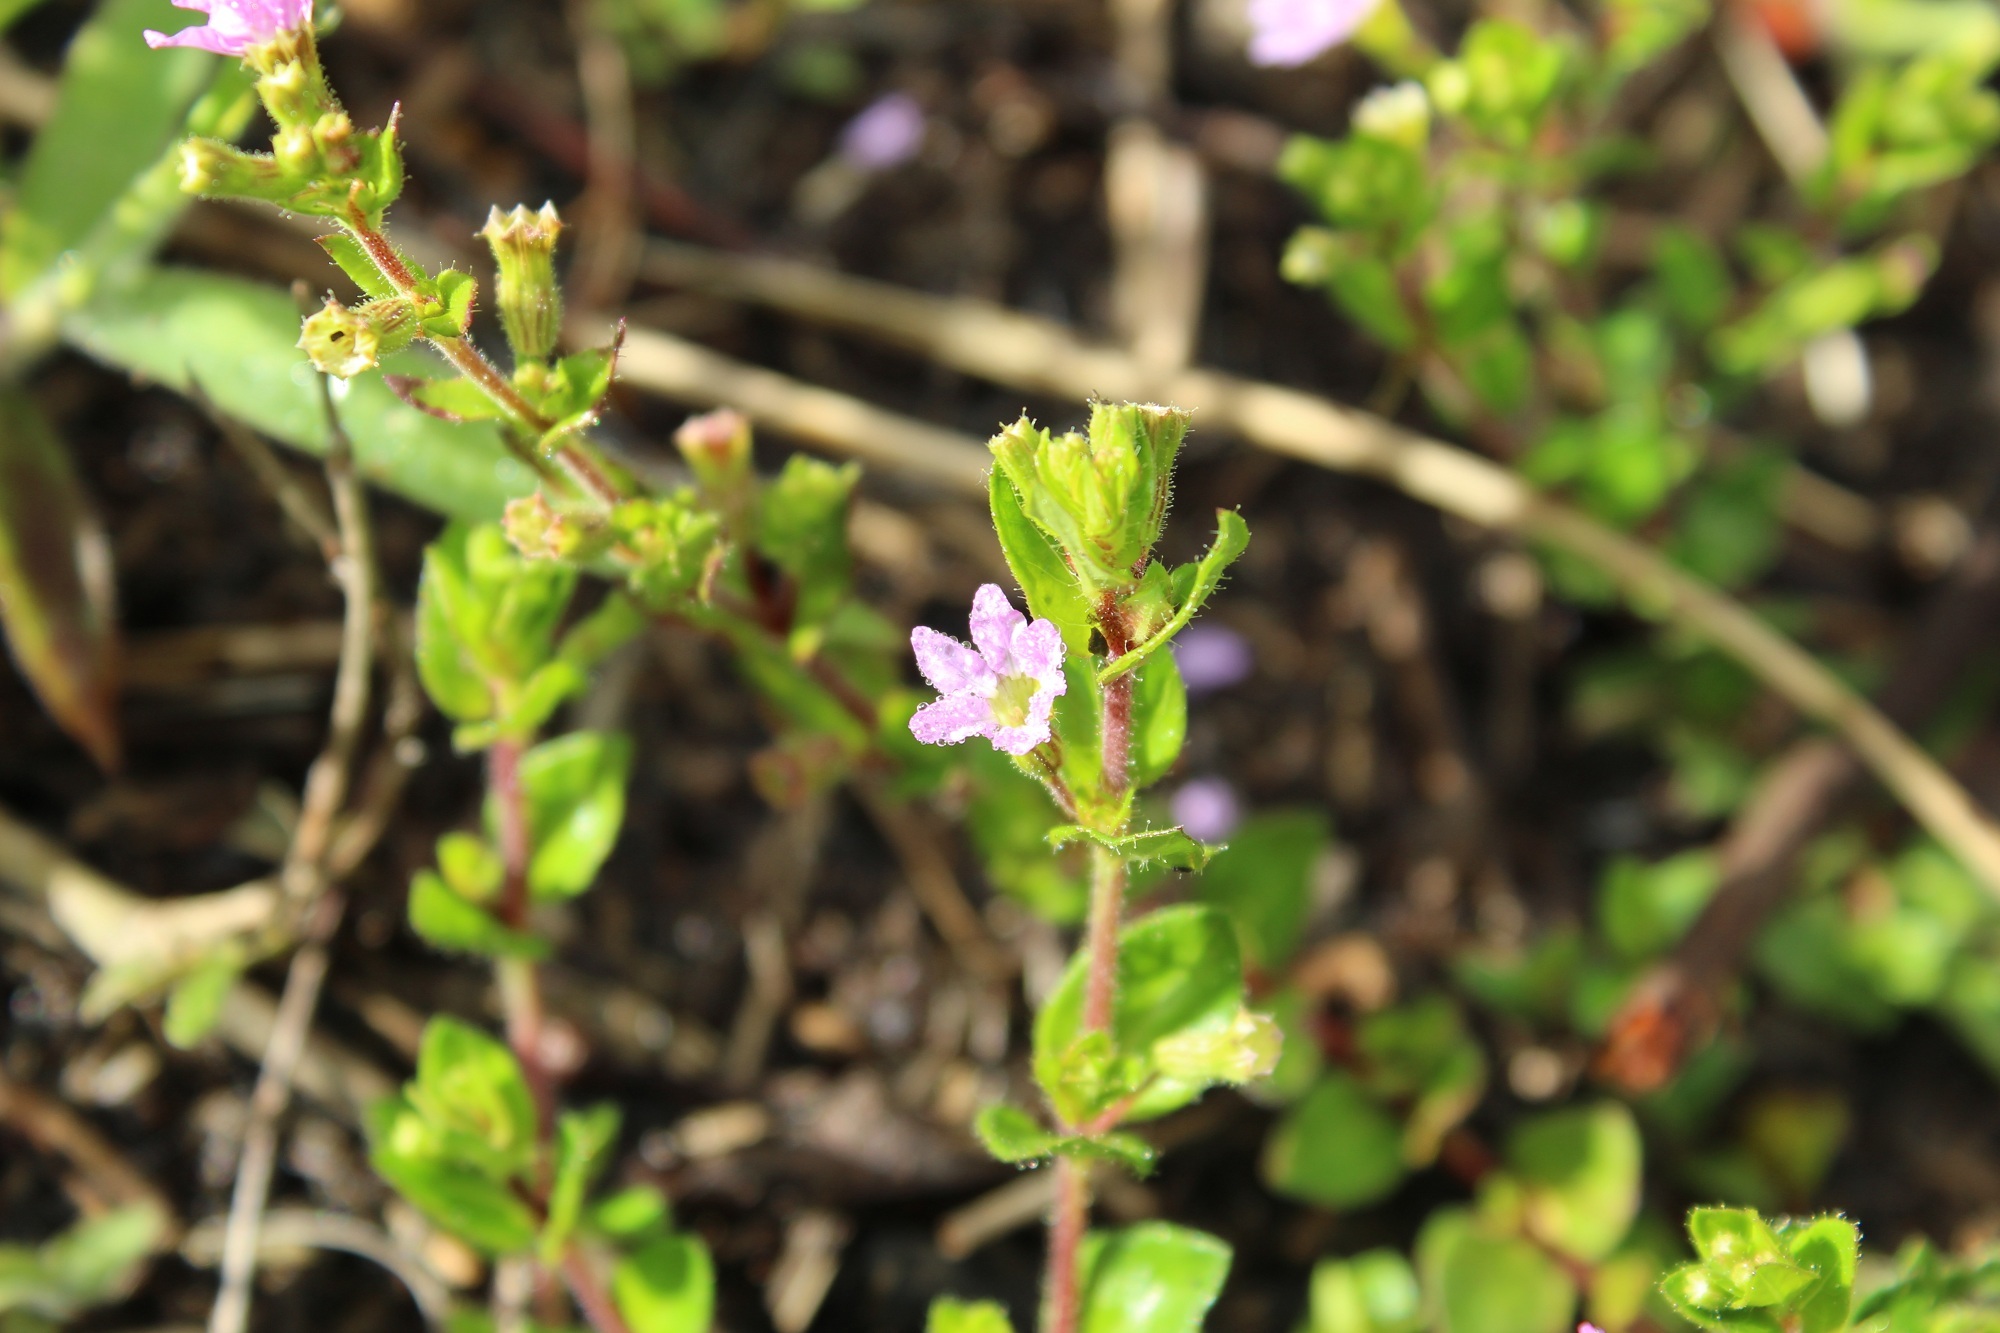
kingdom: Plantae
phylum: Tracheophyta
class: Magnoliopsida
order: Myrtales
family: Lythraceae
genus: Cuphea
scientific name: Cuphea ciliata
